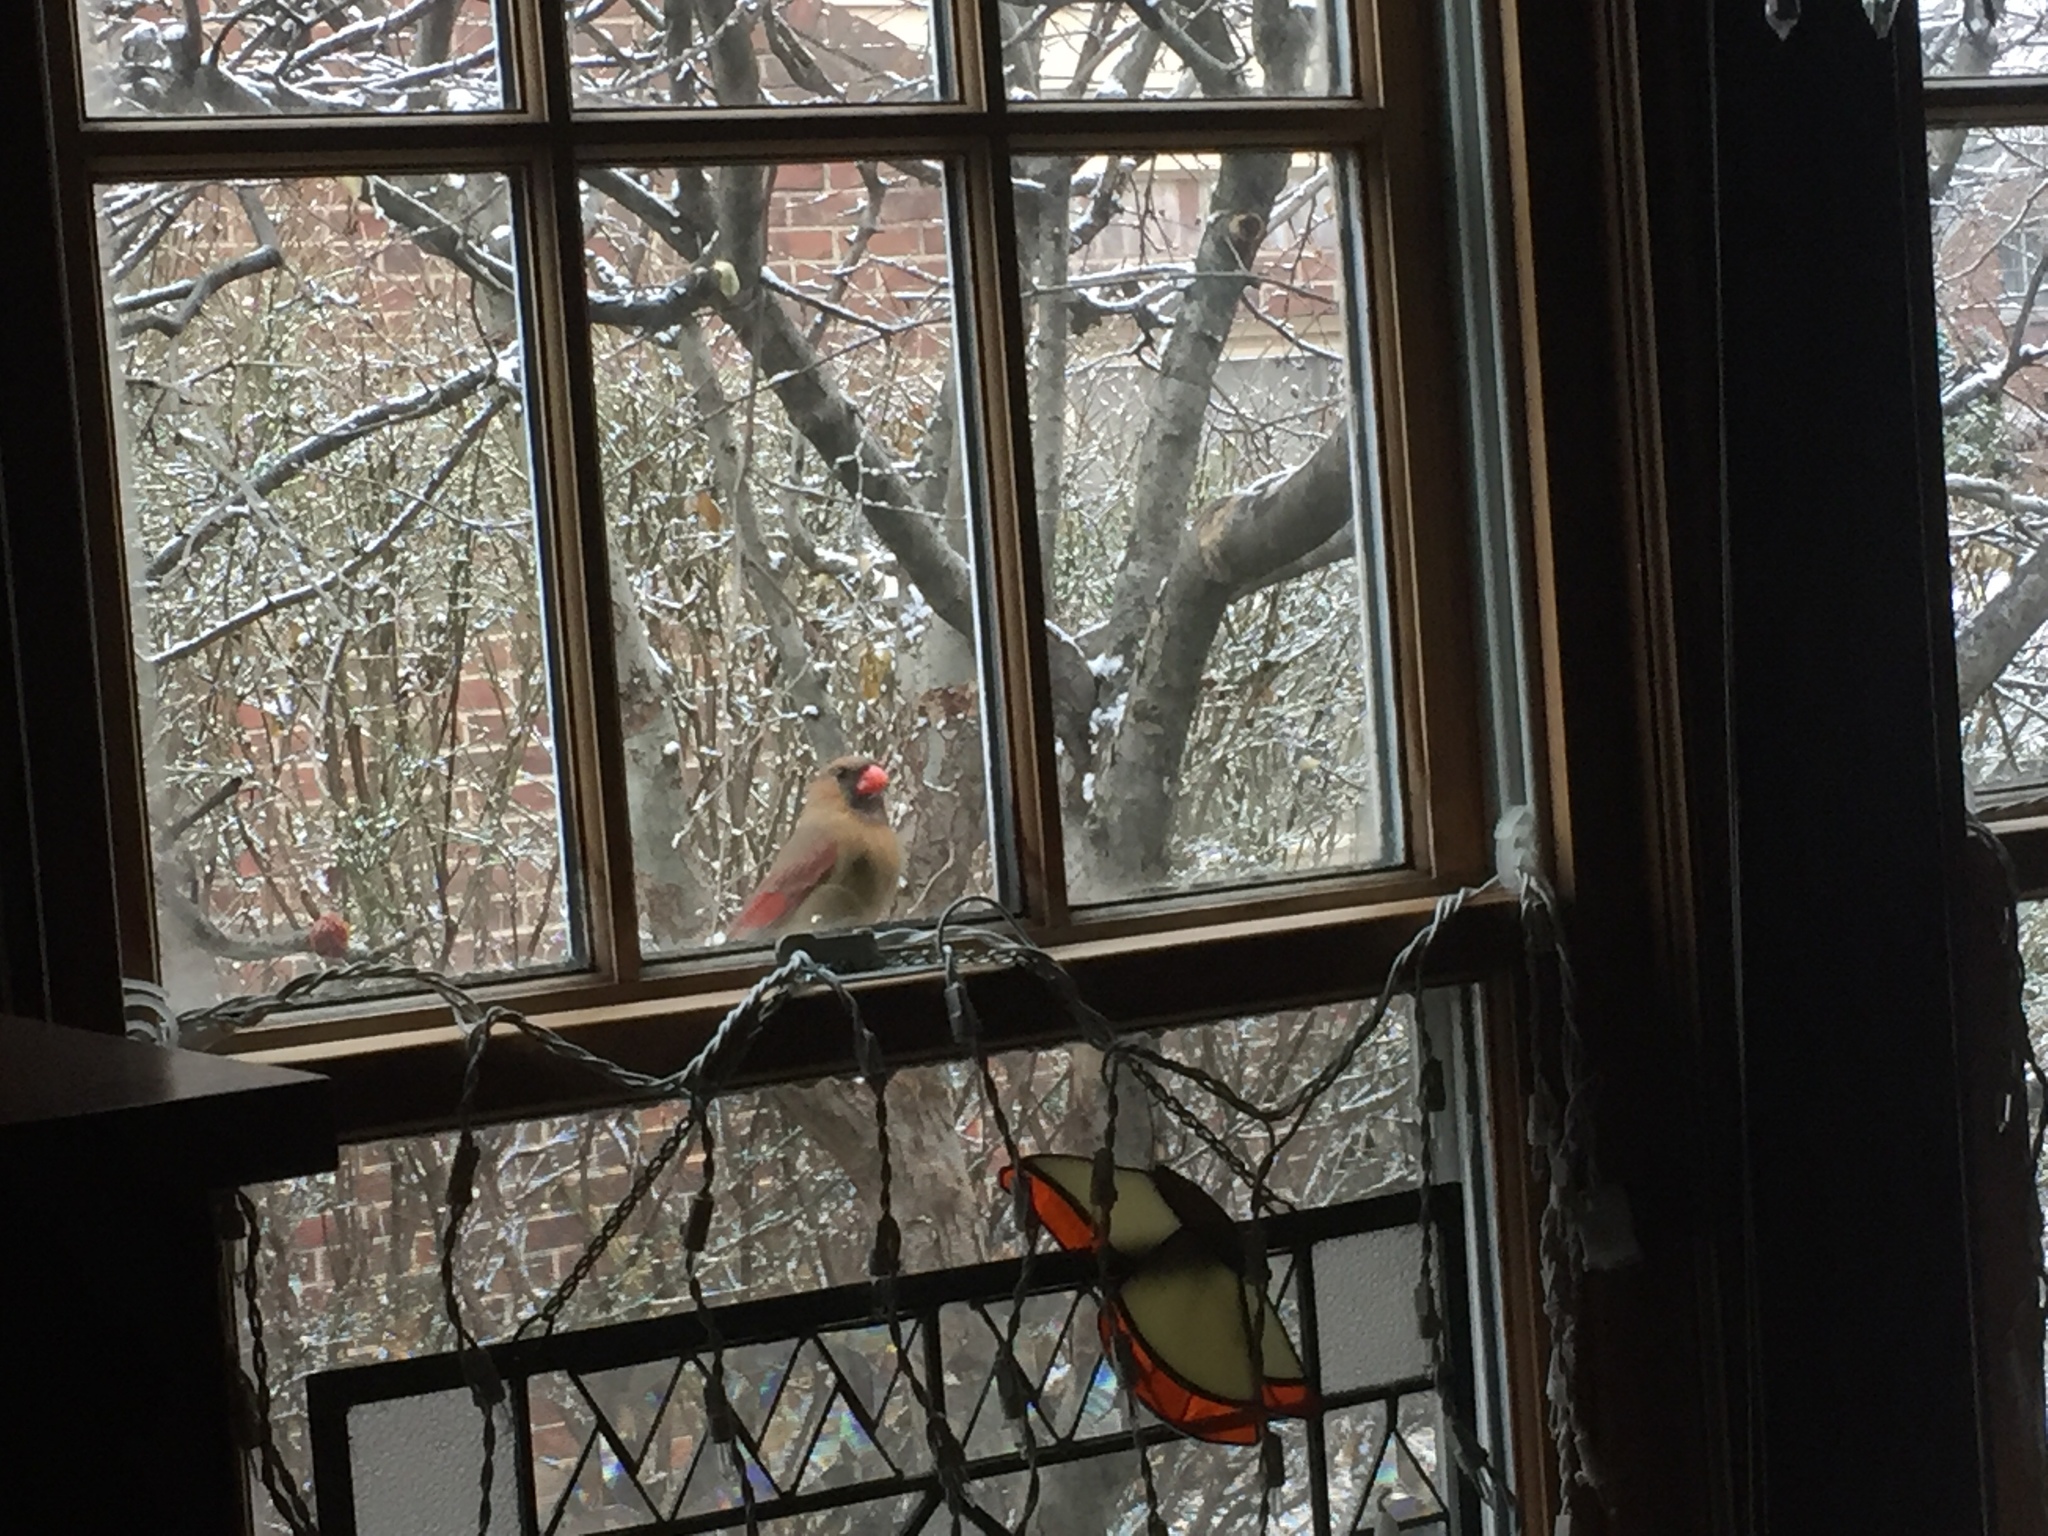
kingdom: Animalia
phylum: Chordata
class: Aves
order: Passeriformes
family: Cardinalidae
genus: Cardinalis
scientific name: Cardinalis cardinalis
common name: Northern cardinal
